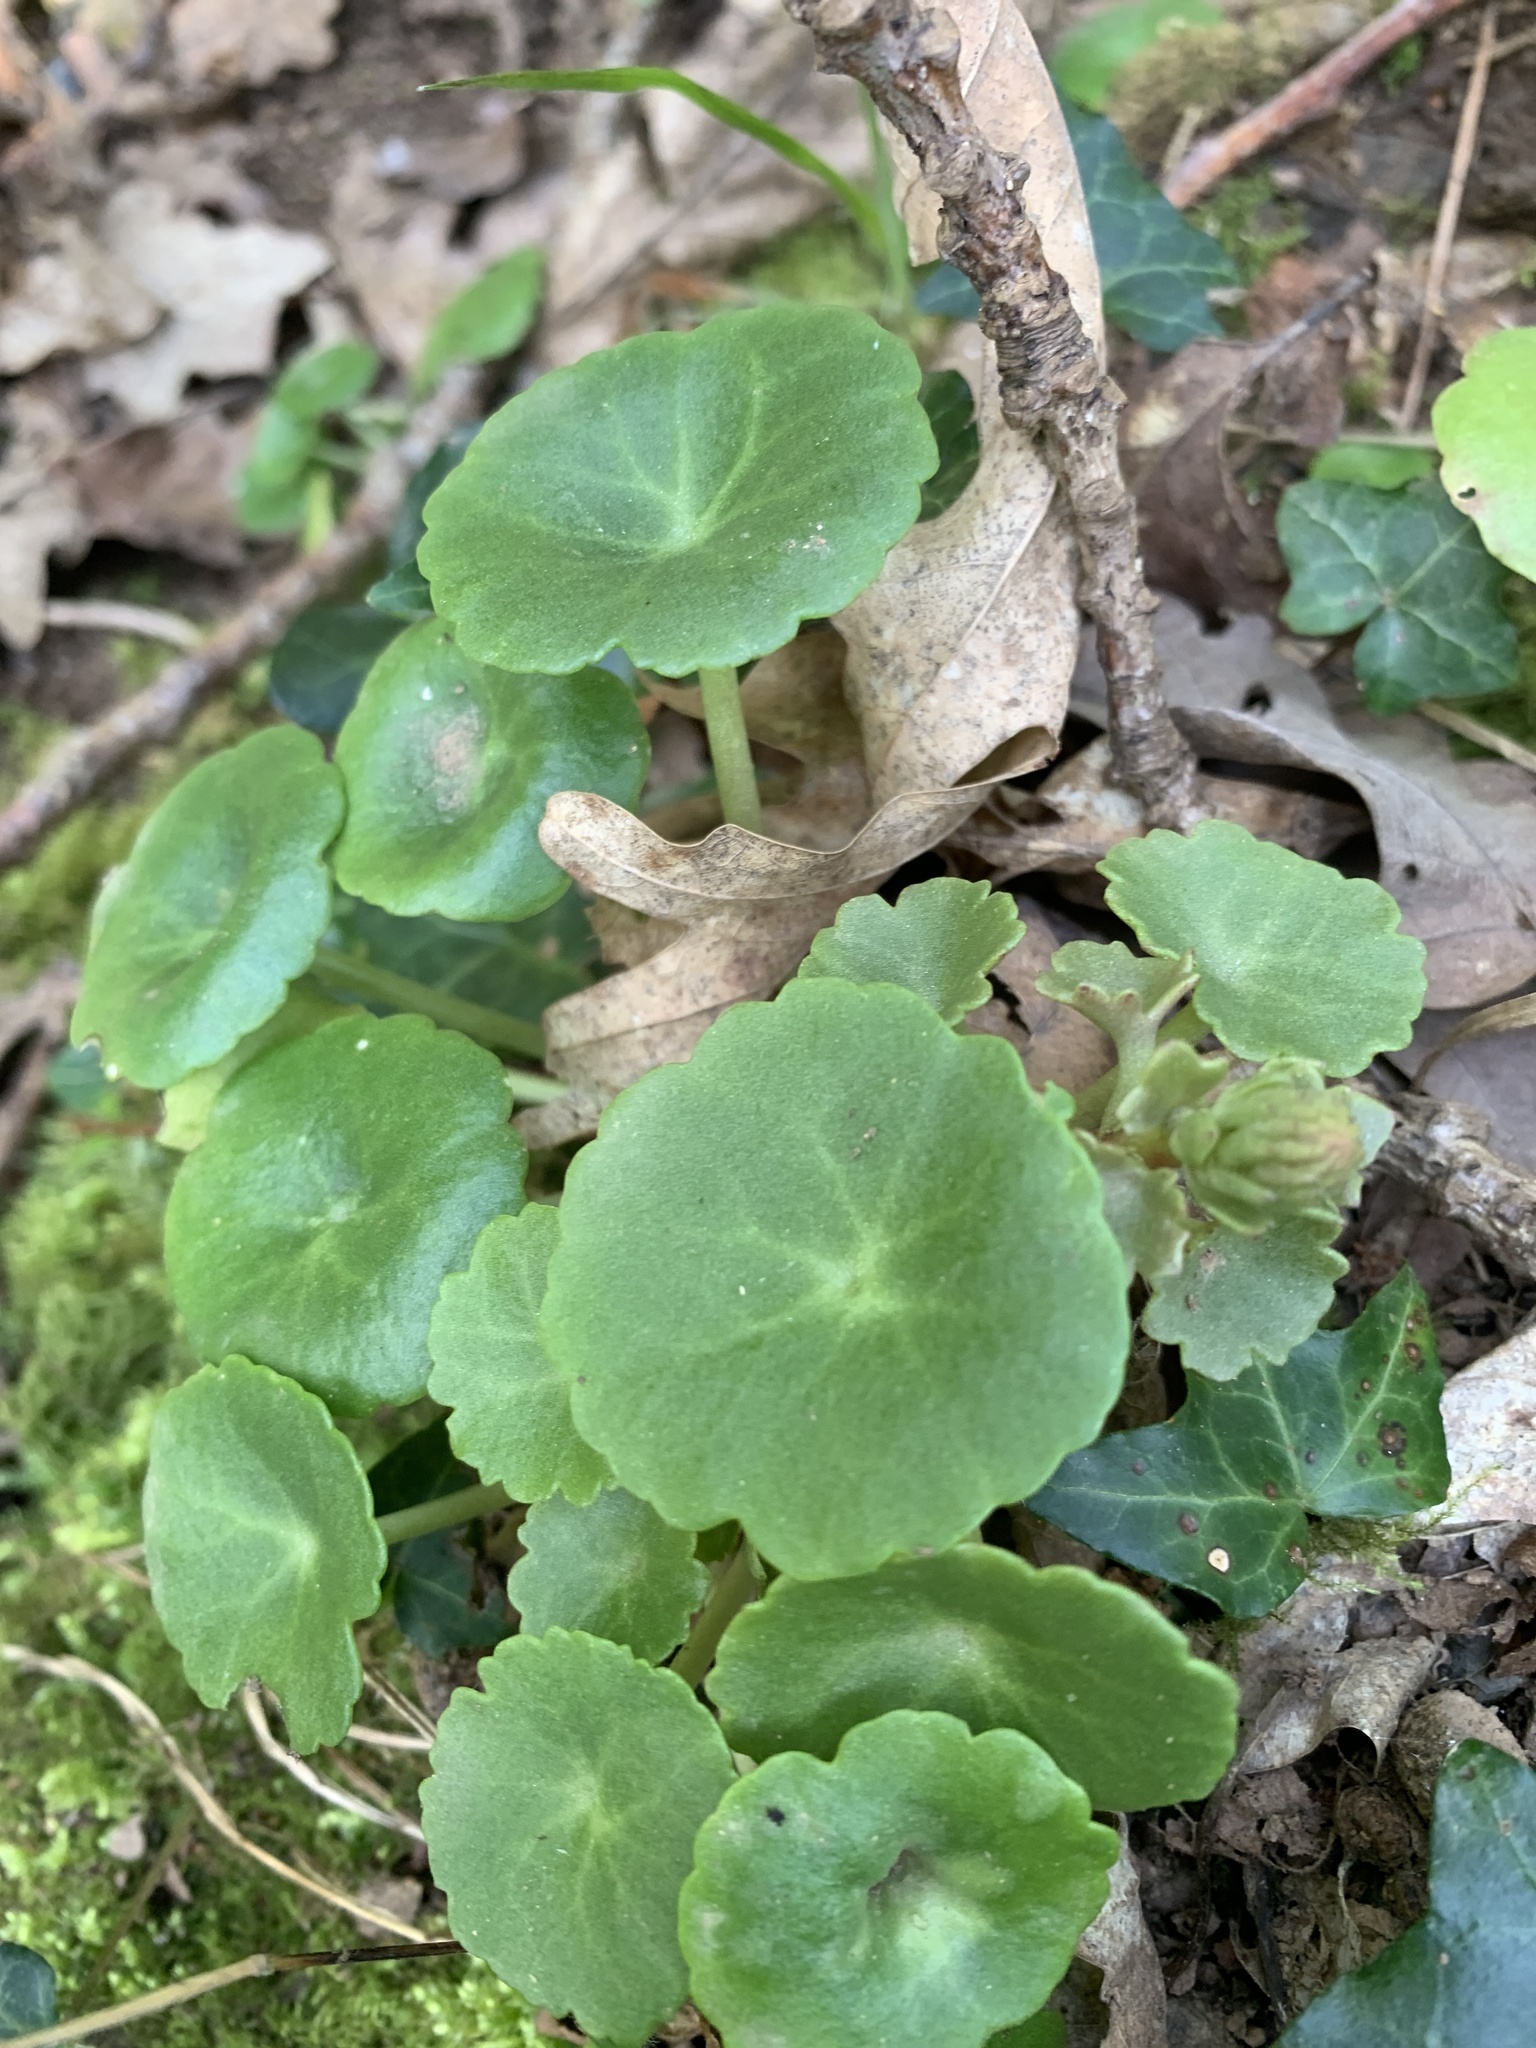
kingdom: Plantae
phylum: Tracheophyta
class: Magnoliopsida
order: Saxifragales
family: Crassulaceae
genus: Umbilicus
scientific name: Umbilicus rupestris
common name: Navelwort
